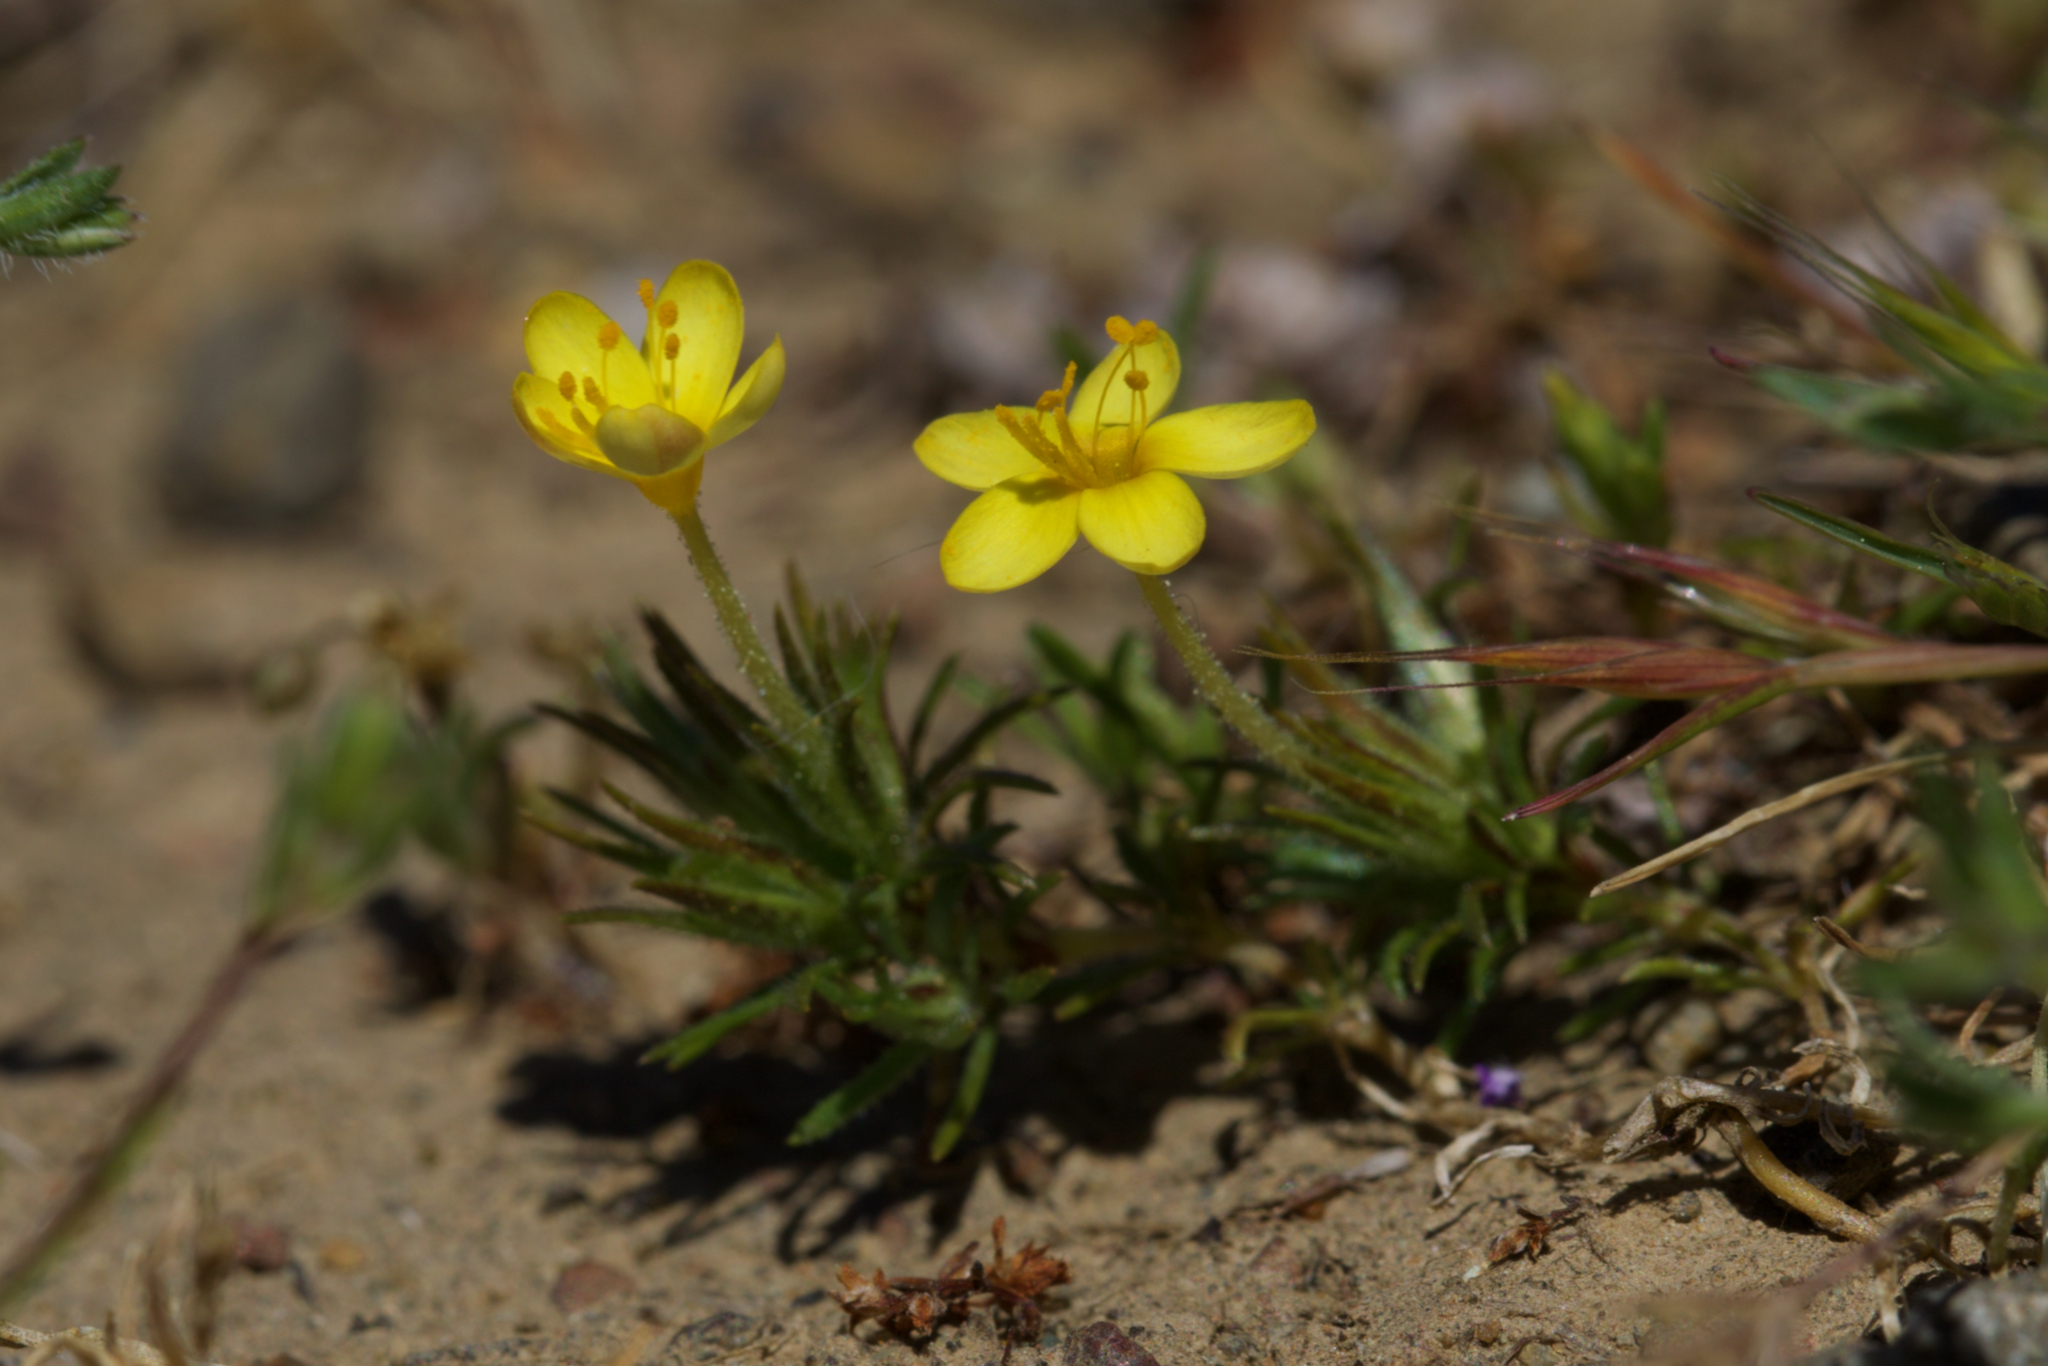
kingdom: Plantae
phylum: Tracheophyta
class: Magnoliopsida
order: Ericales
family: Polemoniaceae
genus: Leptosiphon
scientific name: Leptosiphon acicularis
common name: Bristly linanthus
